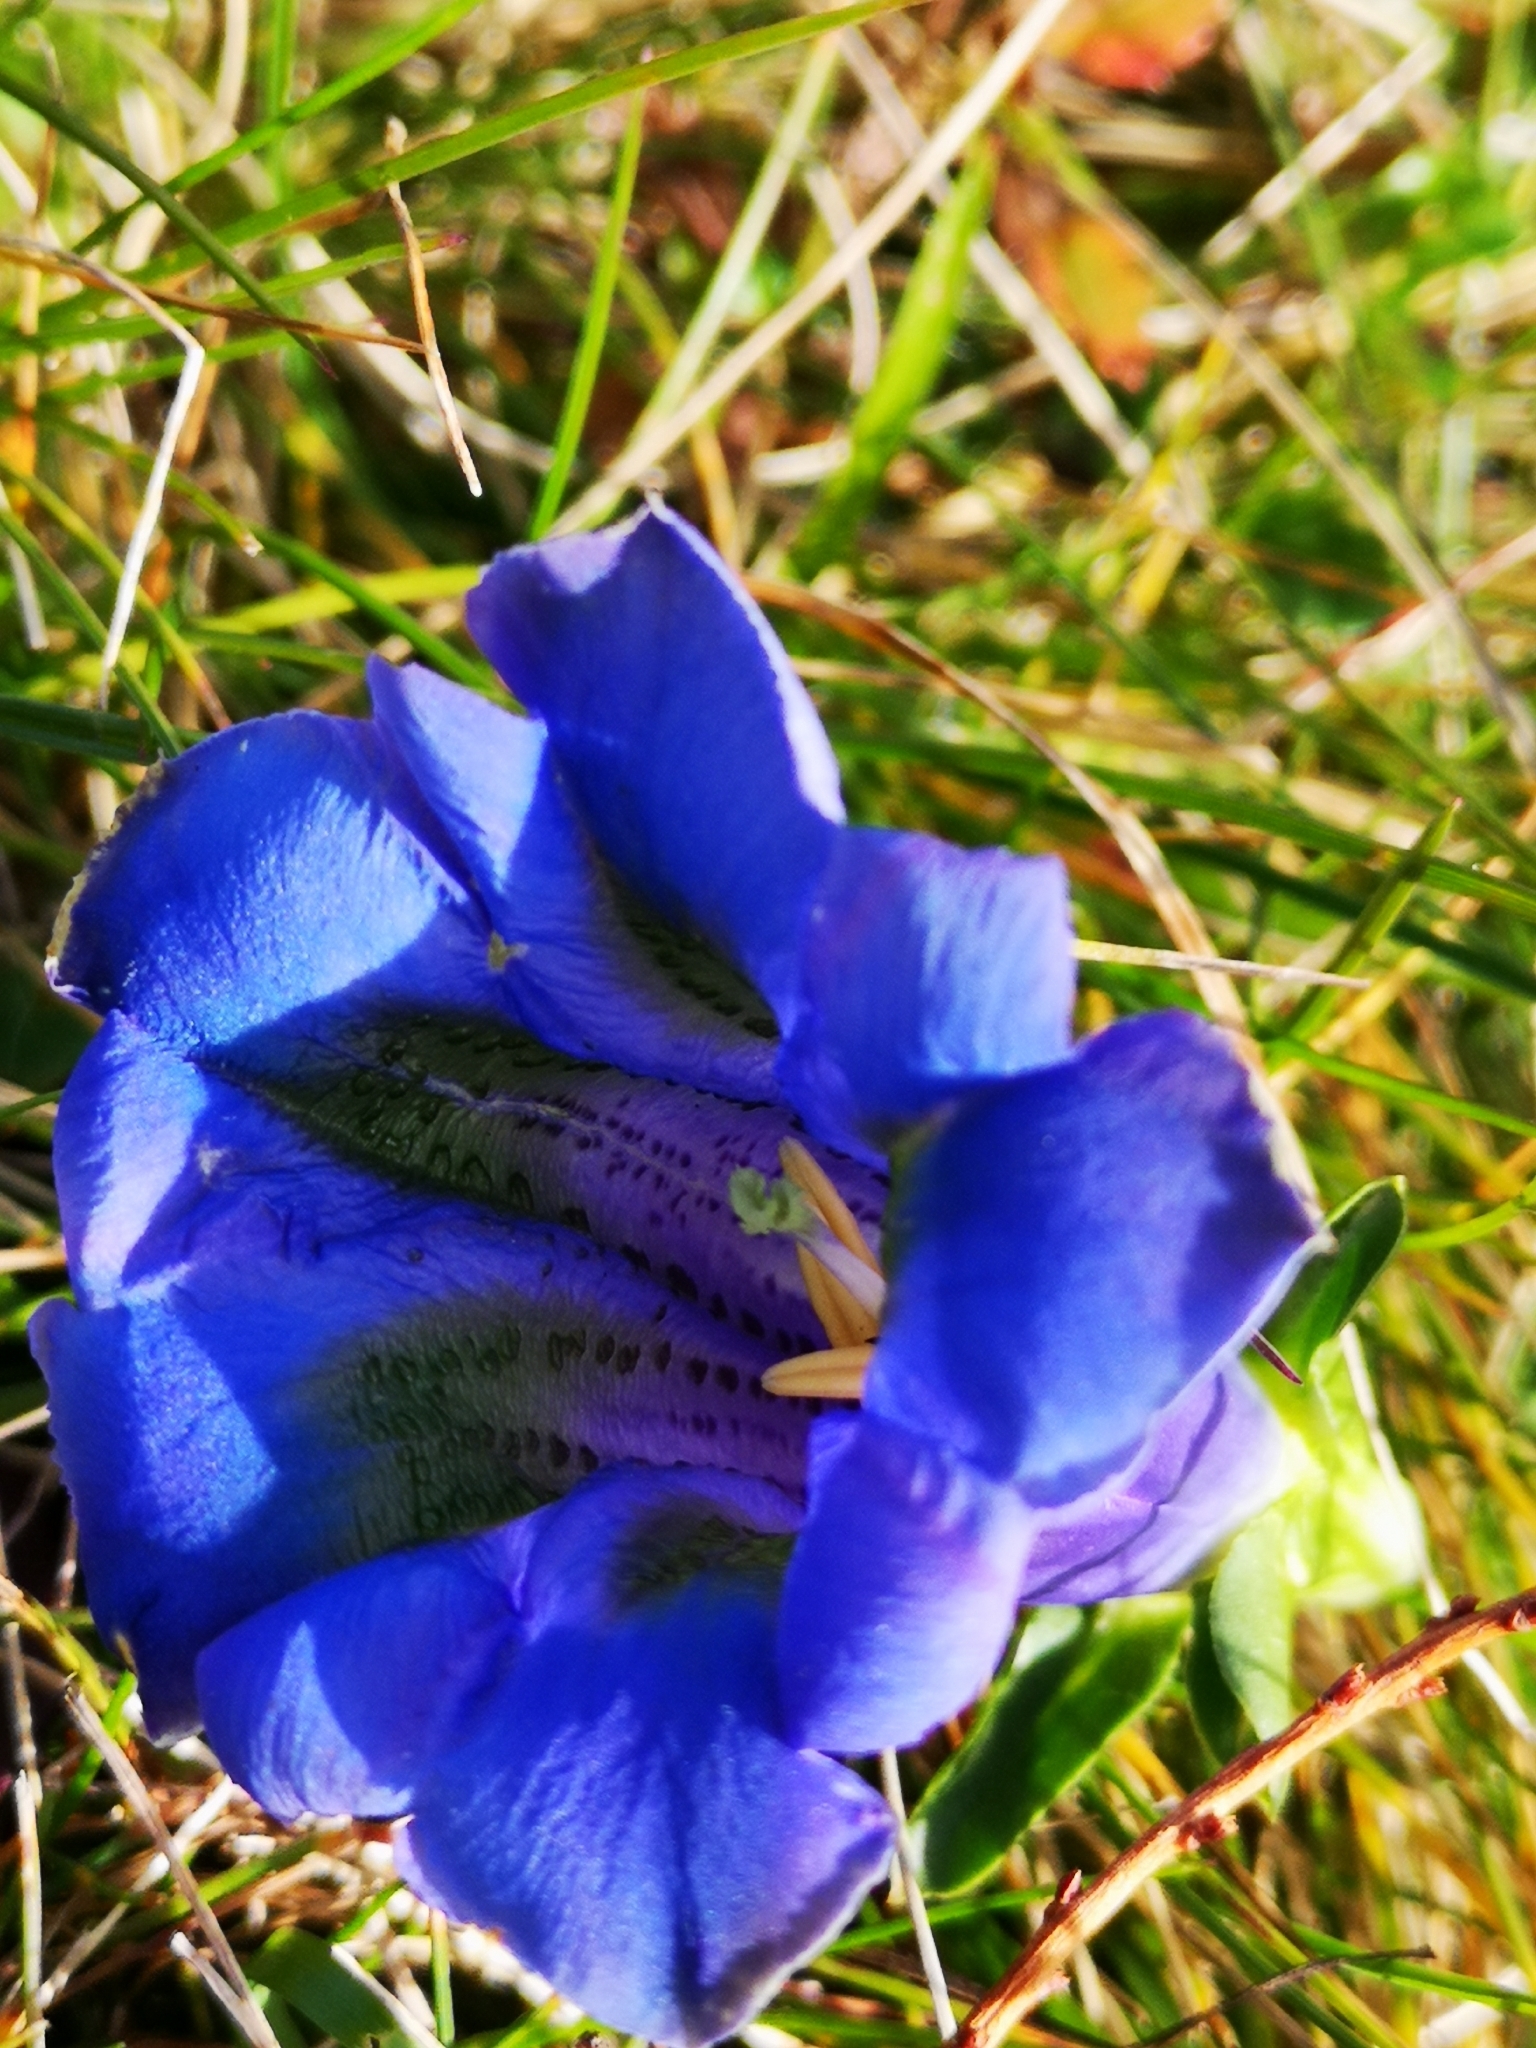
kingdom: Plantae
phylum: Tracheophyta
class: Magnoliopsida
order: Gentianales
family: Gentianaceae
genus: Gentiana
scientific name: Gentiana acaulis
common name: Trumpet gentian
